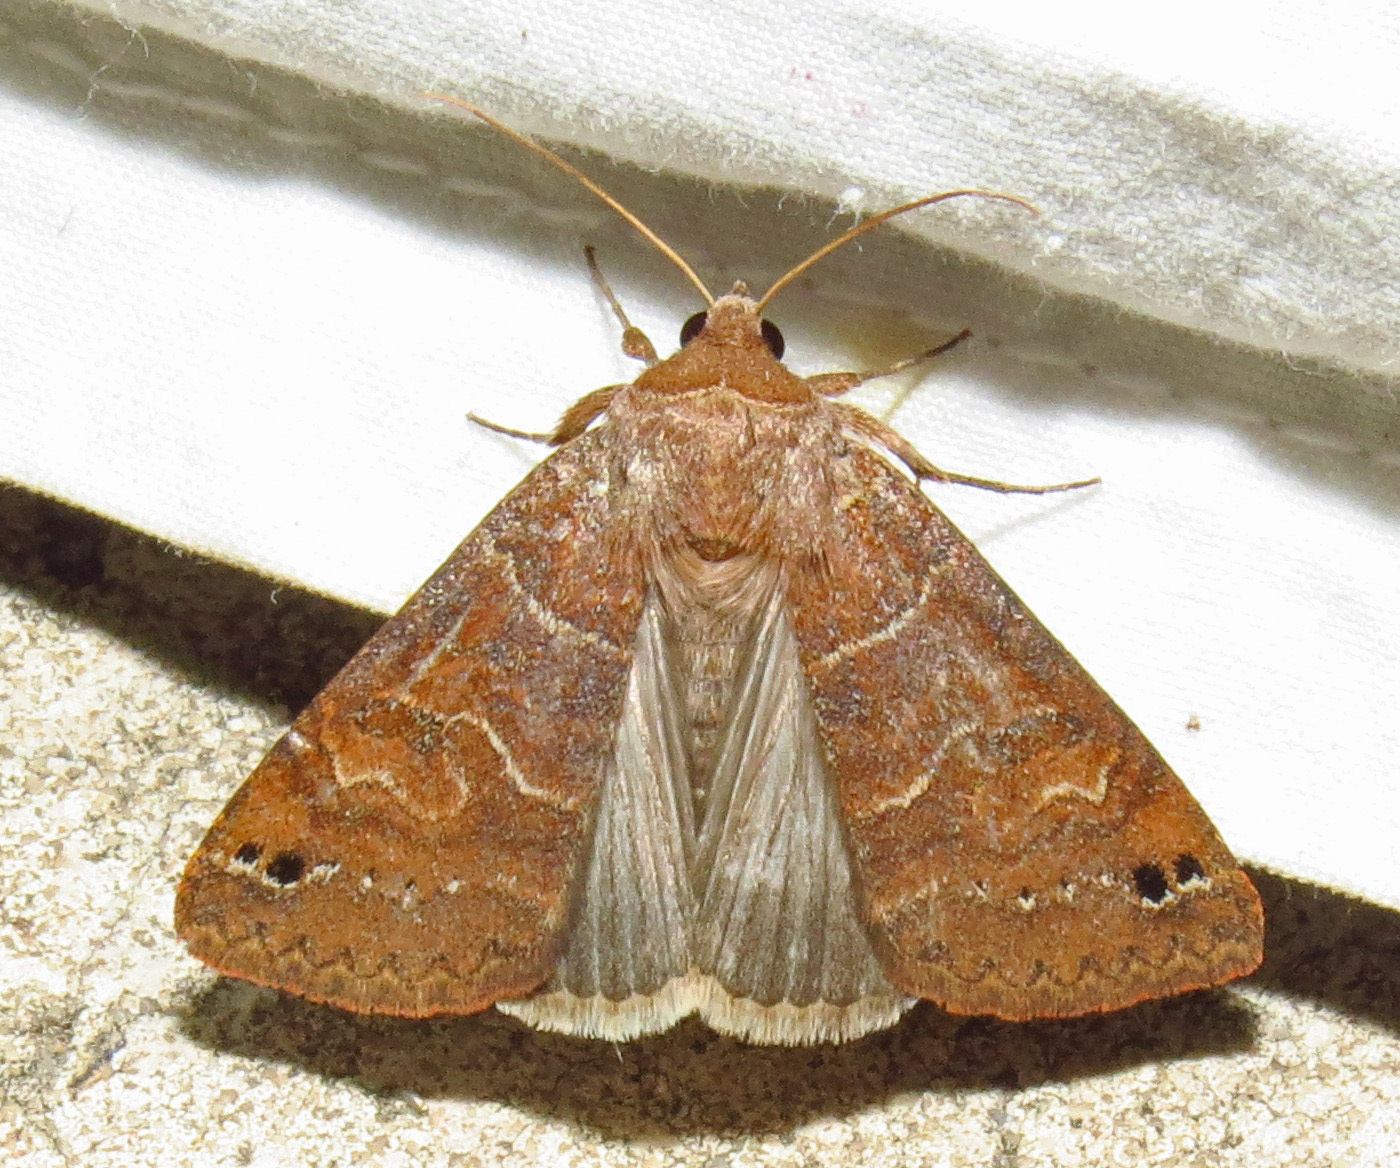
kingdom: Animalia
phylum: Arthropoda
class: Insecta
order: Lepidoptera
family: Erebidae
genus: Cissusa
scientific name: Cissusa spadix
